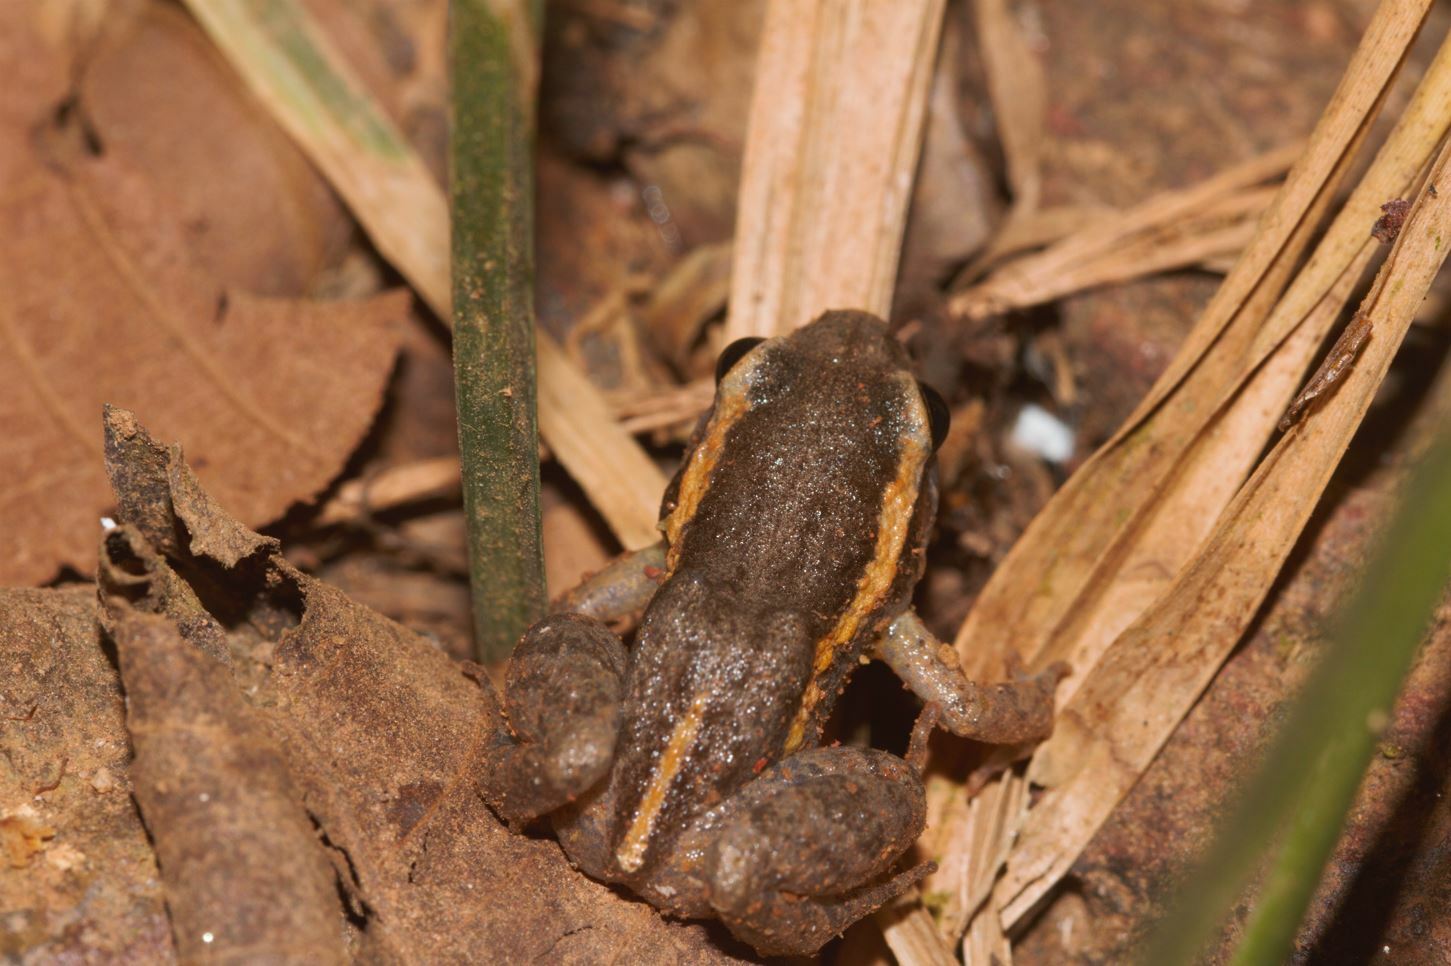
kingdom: Animalia
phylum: Chordata
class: Amphibia
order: Anura
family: Leptodactylidae
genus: Adenomera
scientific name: Adenomera andreae
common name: Lowland tropical bullfrog
